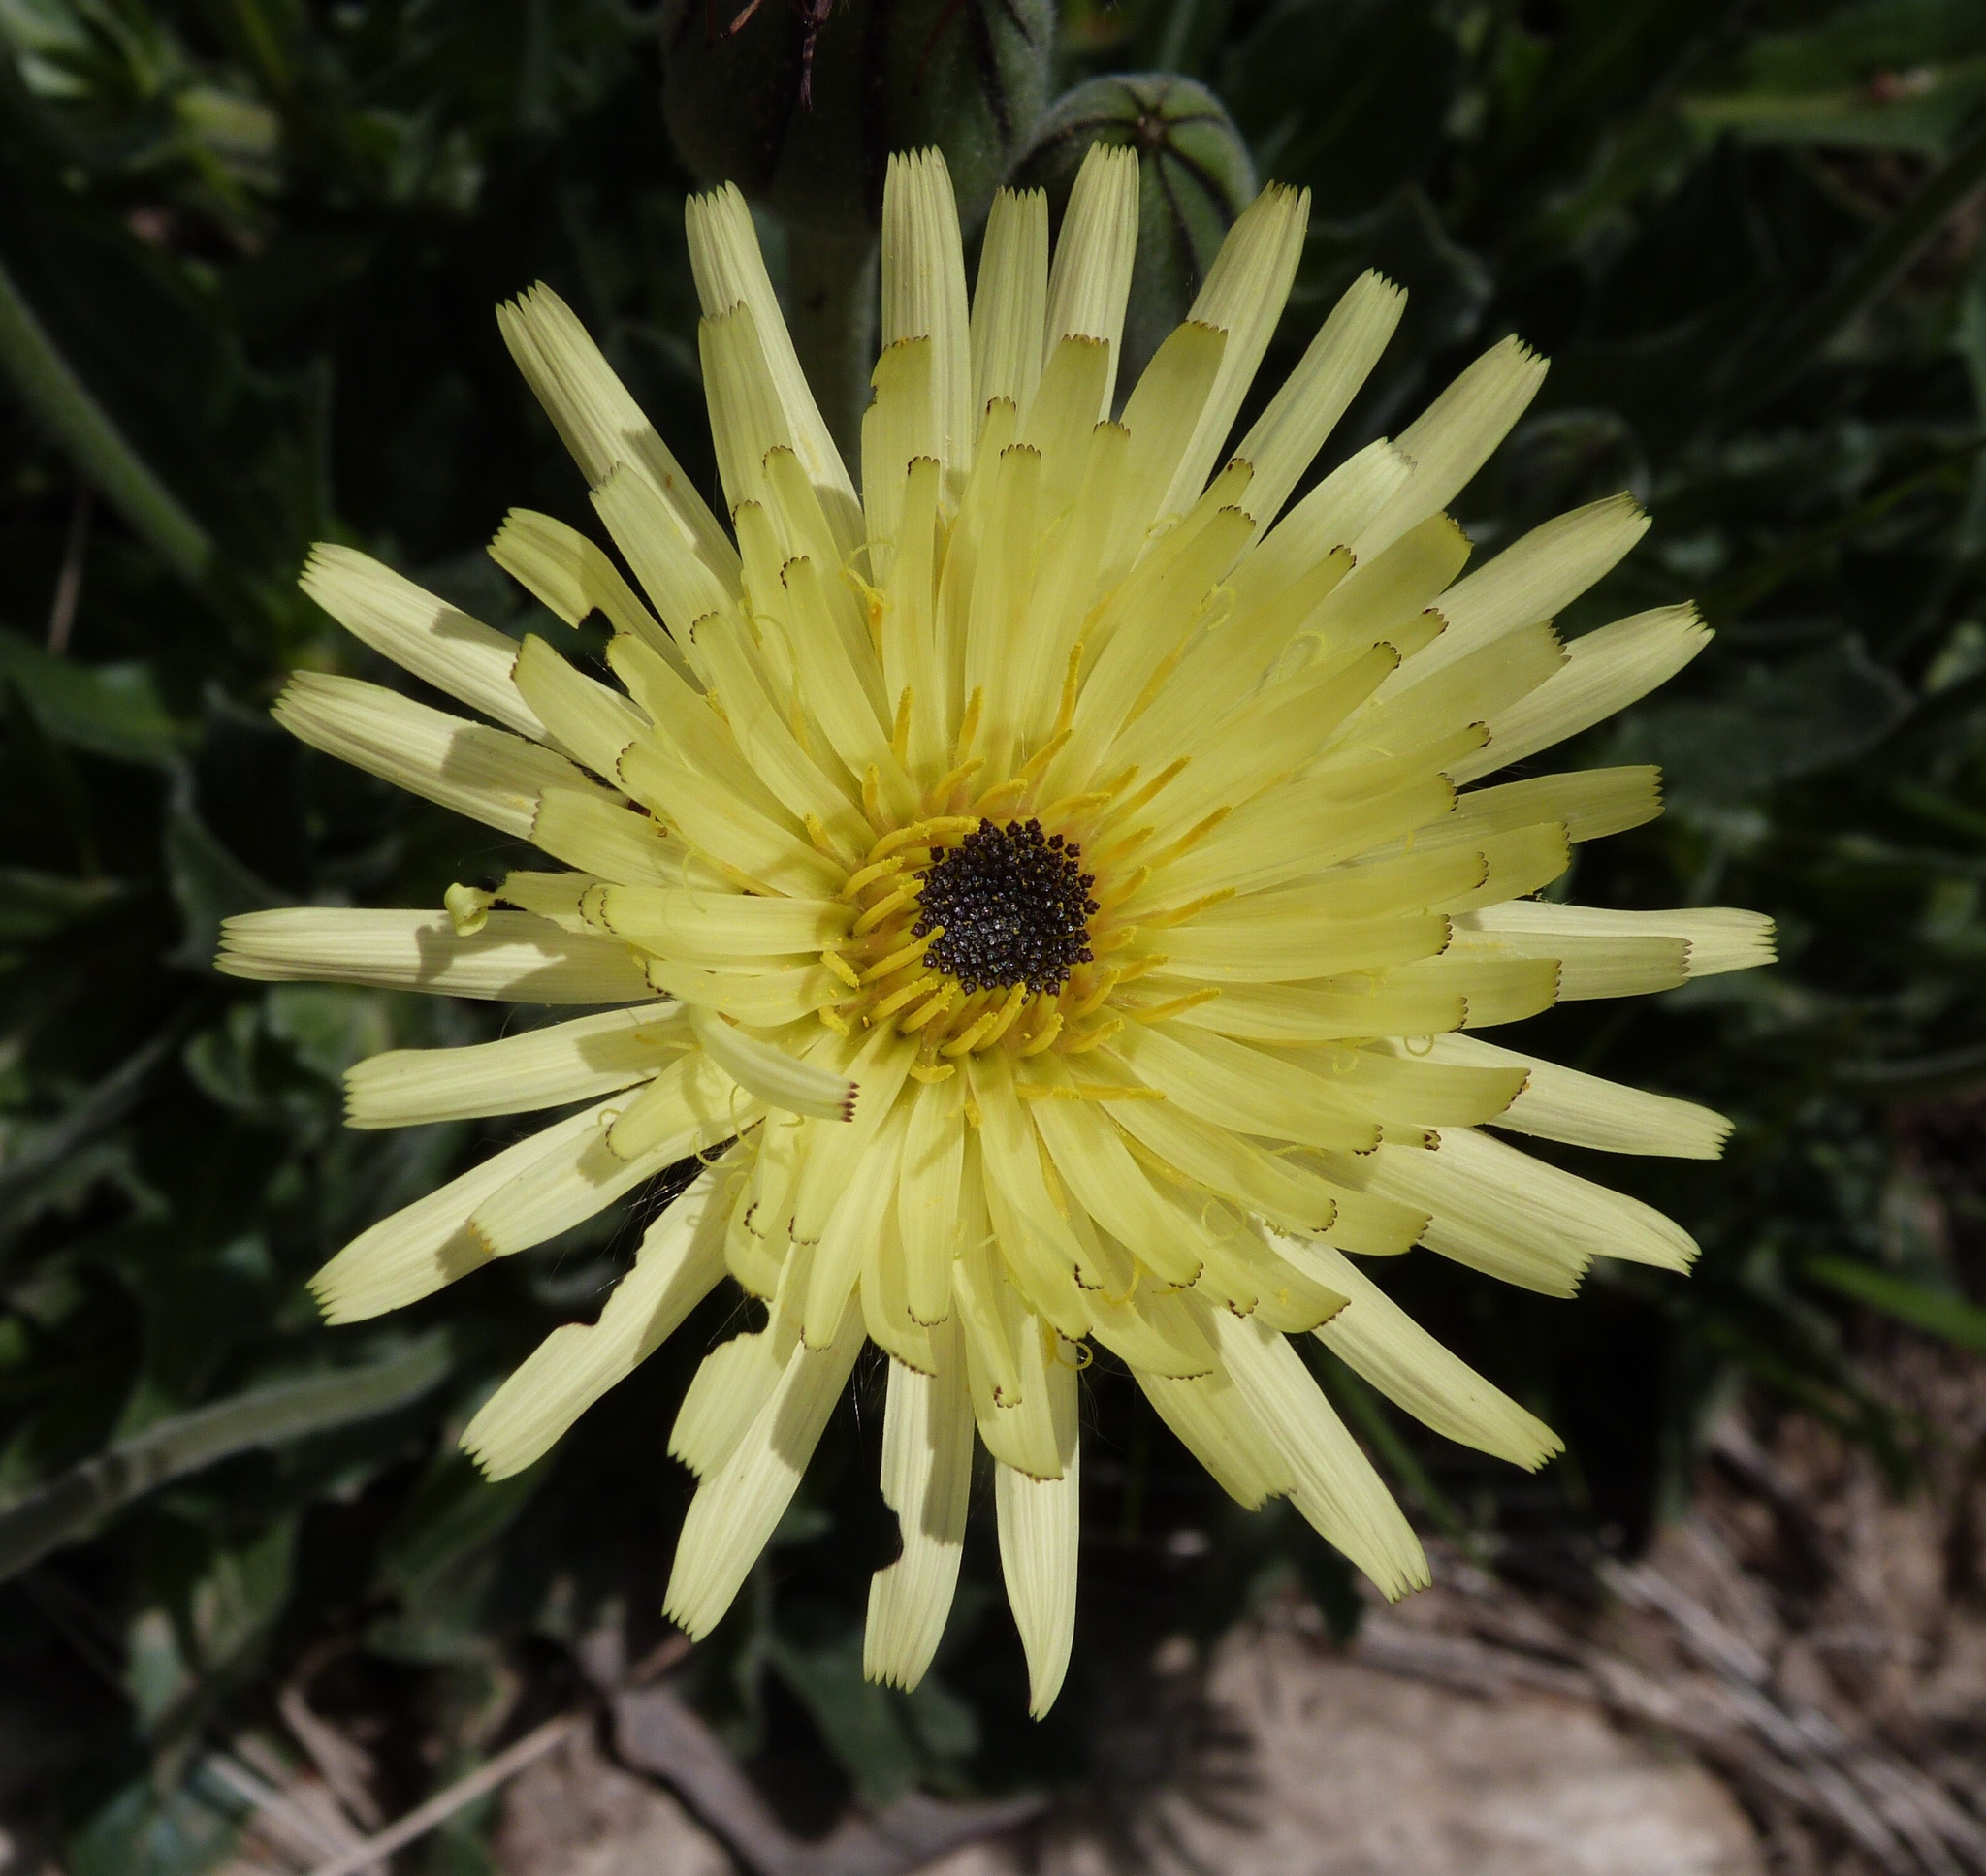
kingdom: Plantae
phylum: Tracheophyta
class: Magnoliopsida
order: Asterales
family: Asteraceae
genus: Urospermum
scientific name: Urospermum dalechampii
